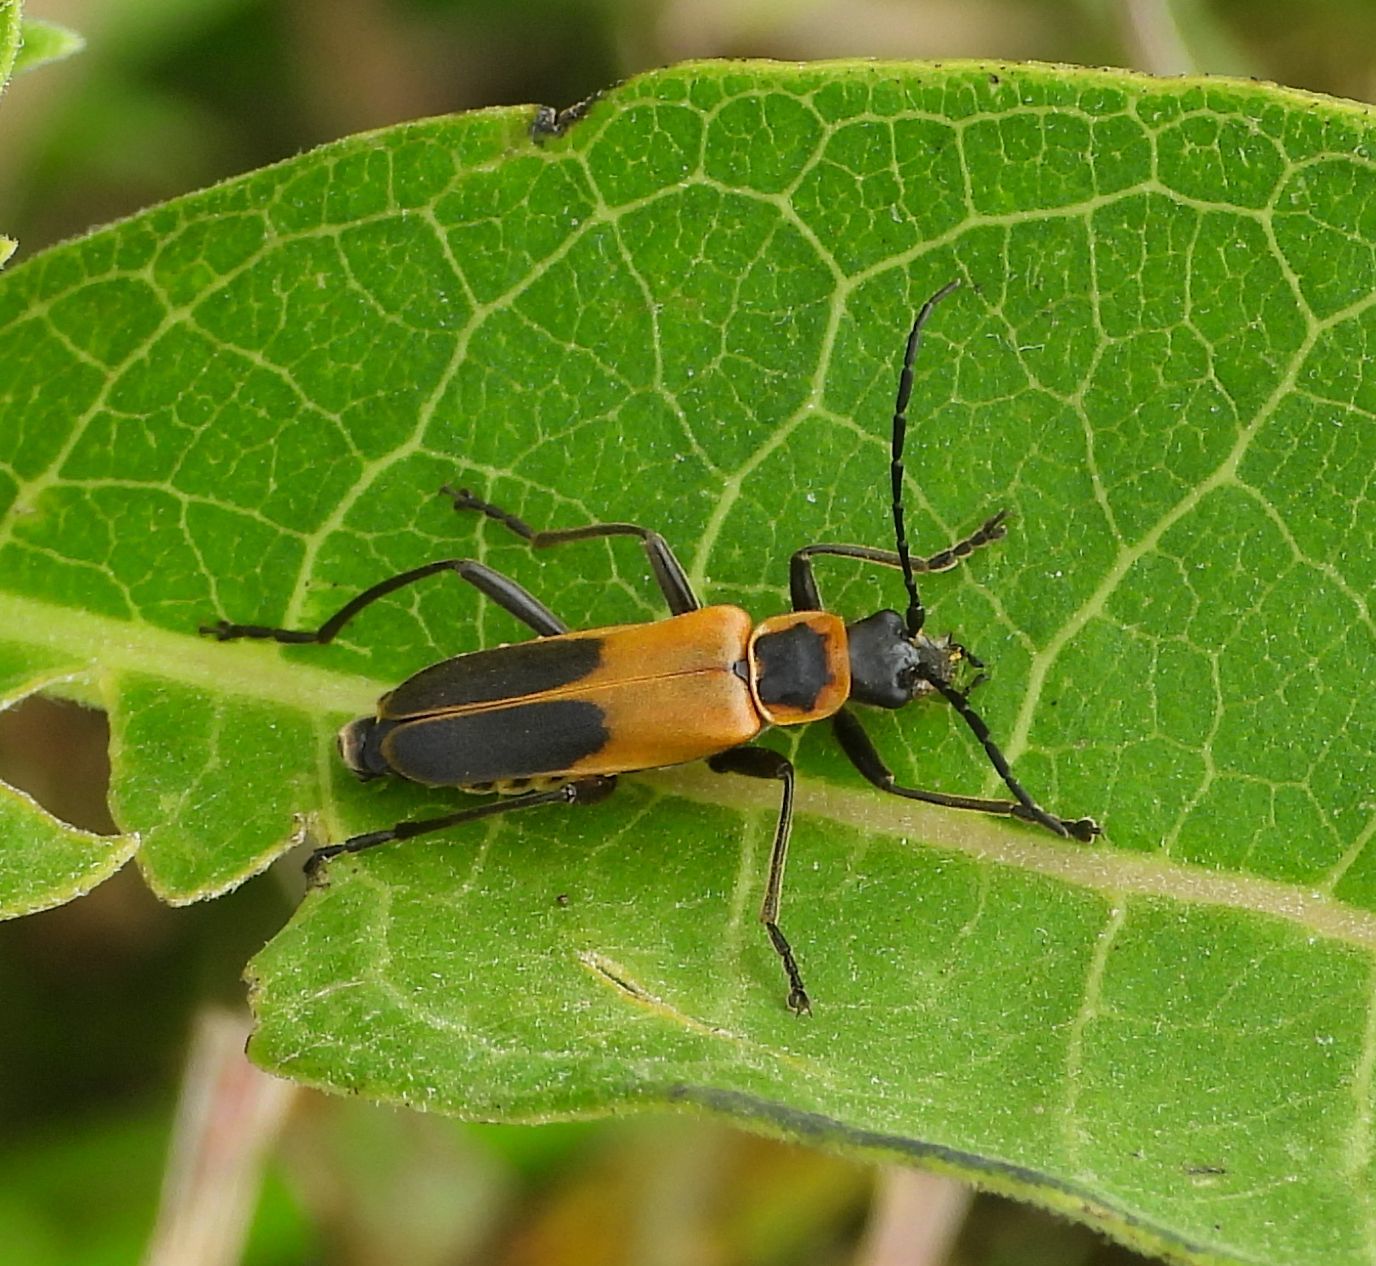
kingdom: Animalia
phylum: Arthropoda
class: Insecta
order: Coleoptera
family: Cantharidae
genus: Chauliognathus
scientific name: Chauliognathus pensylvanicus
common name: Goldenrod soldier beetle
